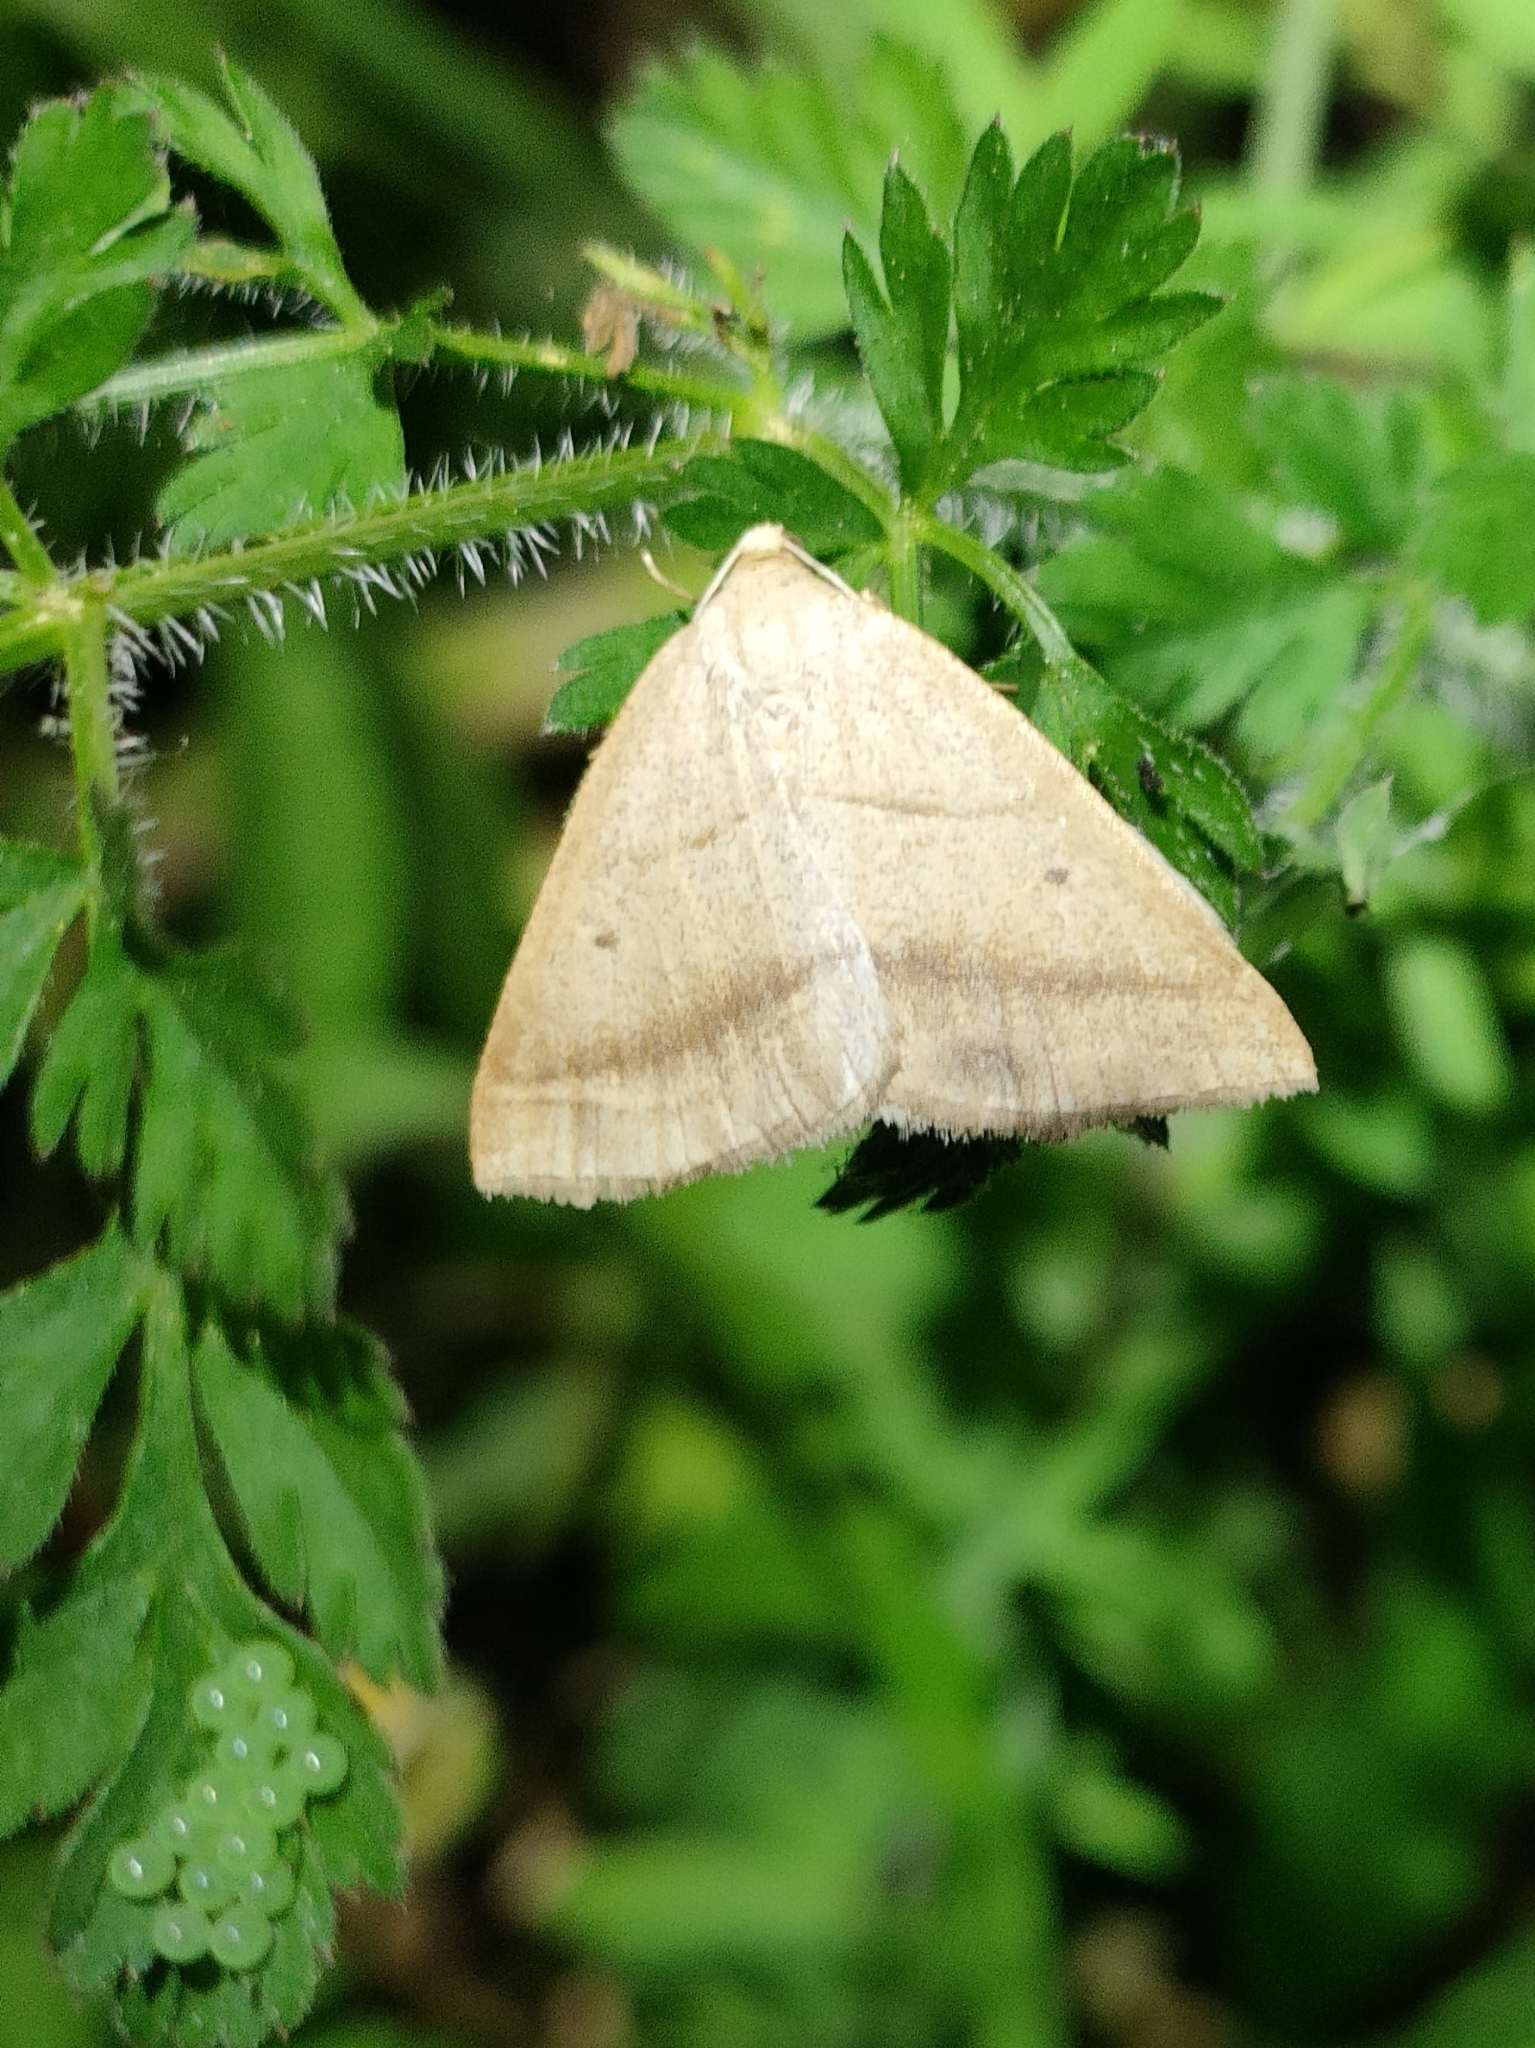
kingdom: Animalia
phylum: Arthropoda
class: Insecta
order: Lepidoptera
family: Pterophoridae
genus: Pterophorus
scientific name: Pterophorus Petrophora chlorosata
